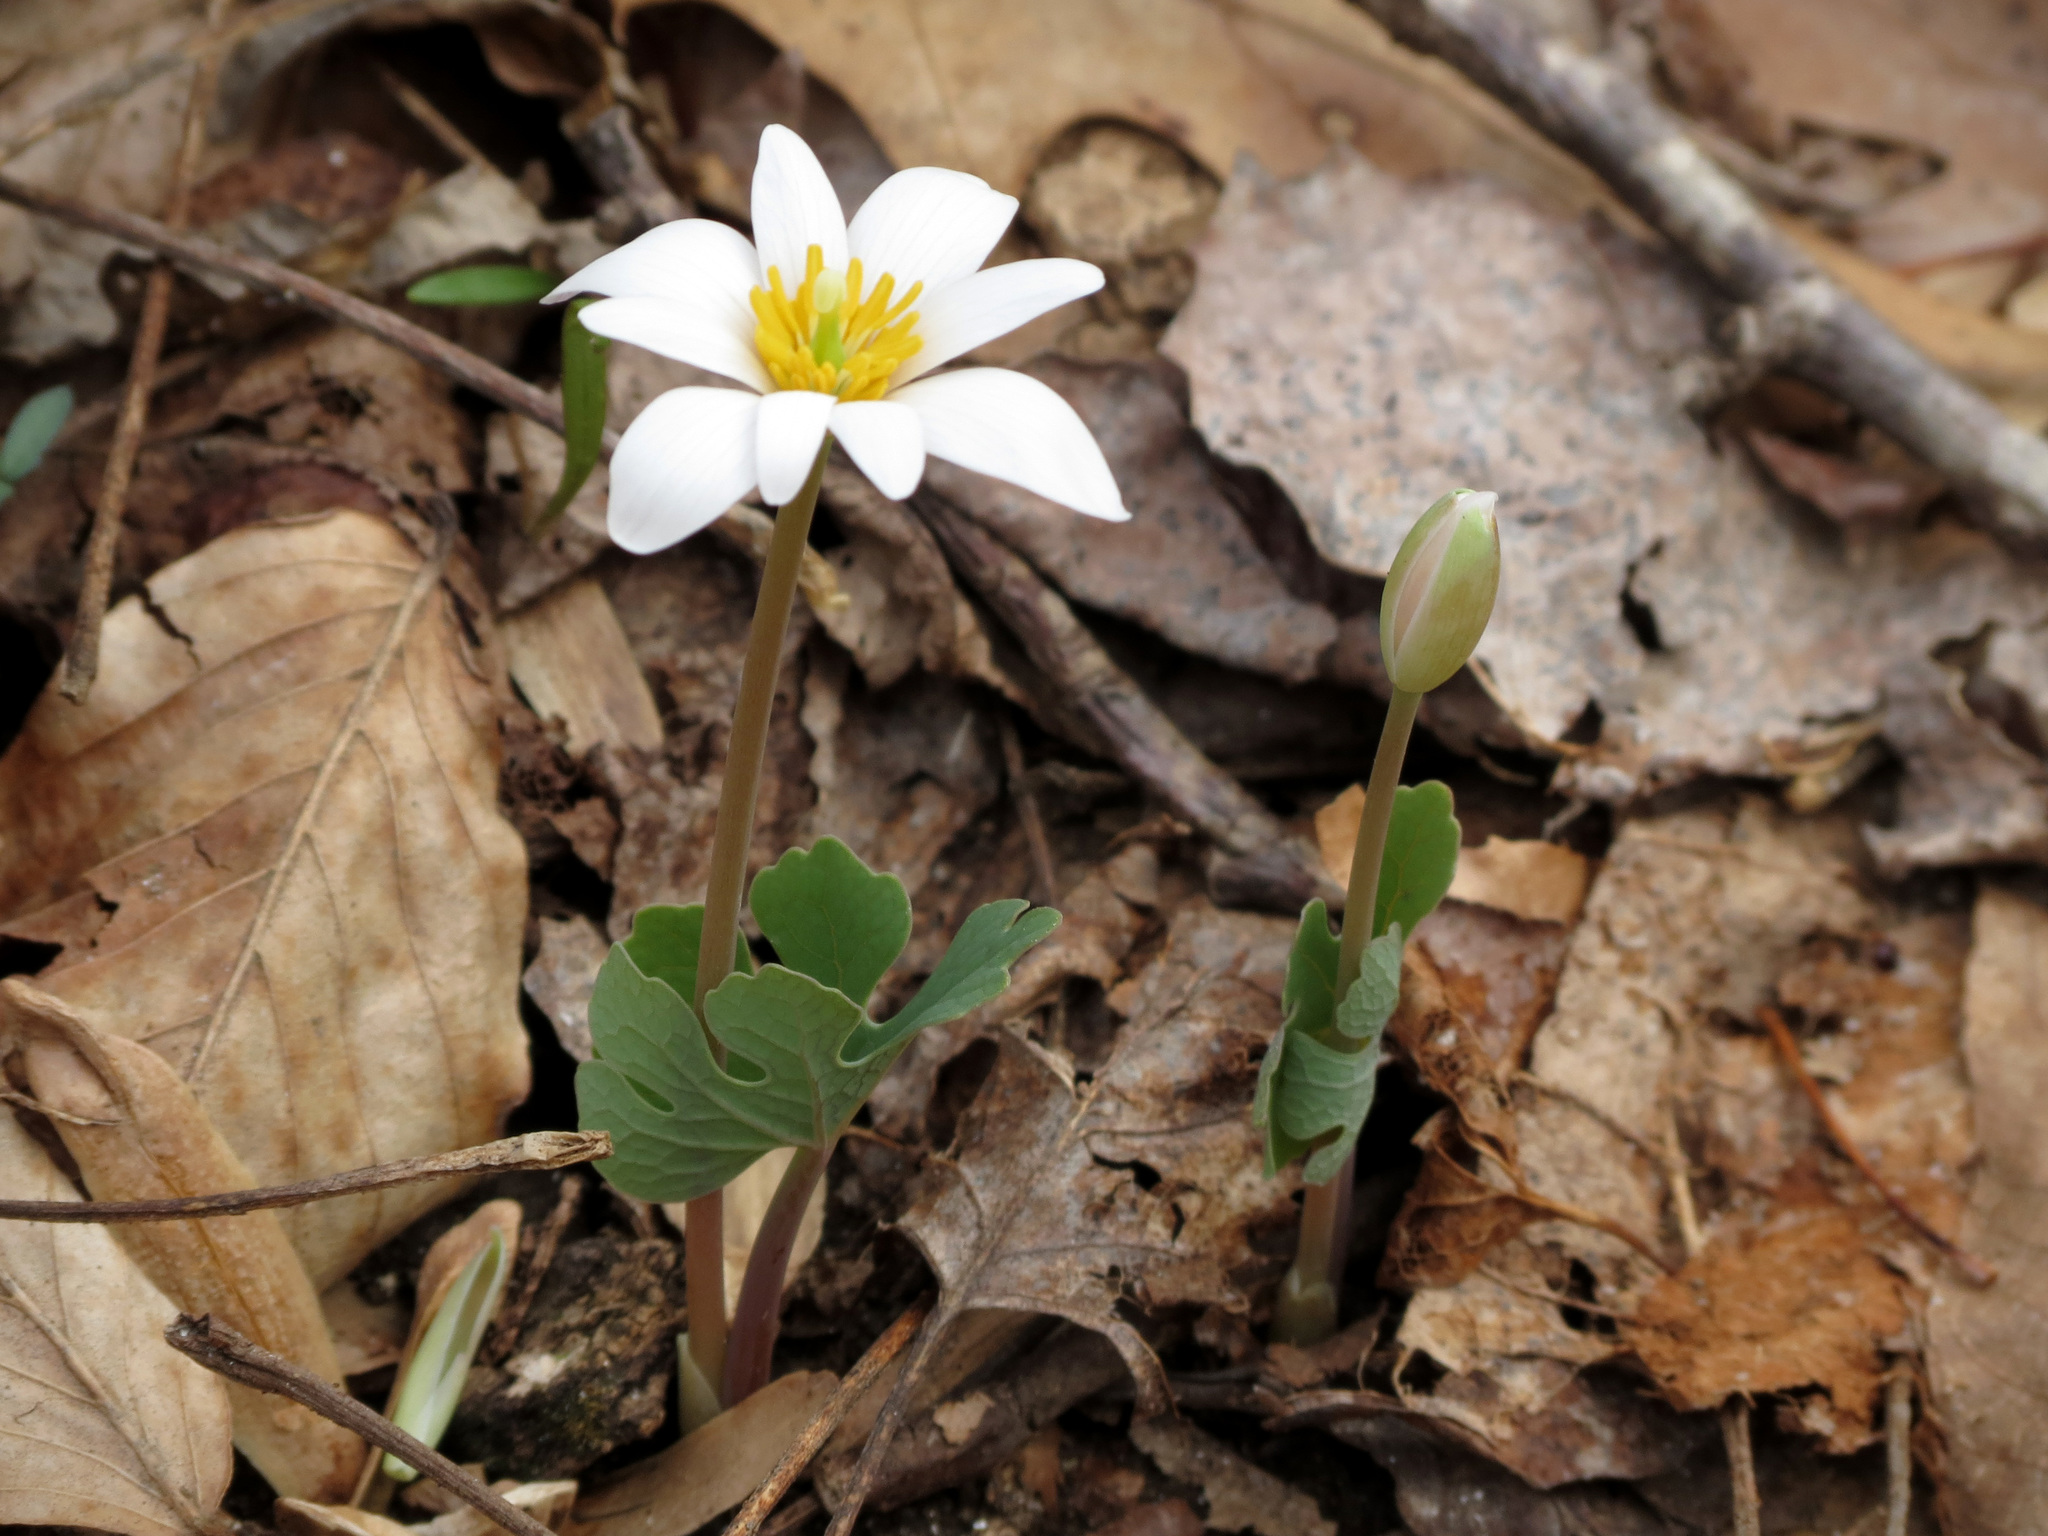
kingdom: Plantae
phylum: Tracheophyta
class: Magnoliopsida
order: Ranunculales
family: Papaveraceae
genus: Sanguinaria
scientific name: Sanguinaria canadensis
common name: Bloodroot
